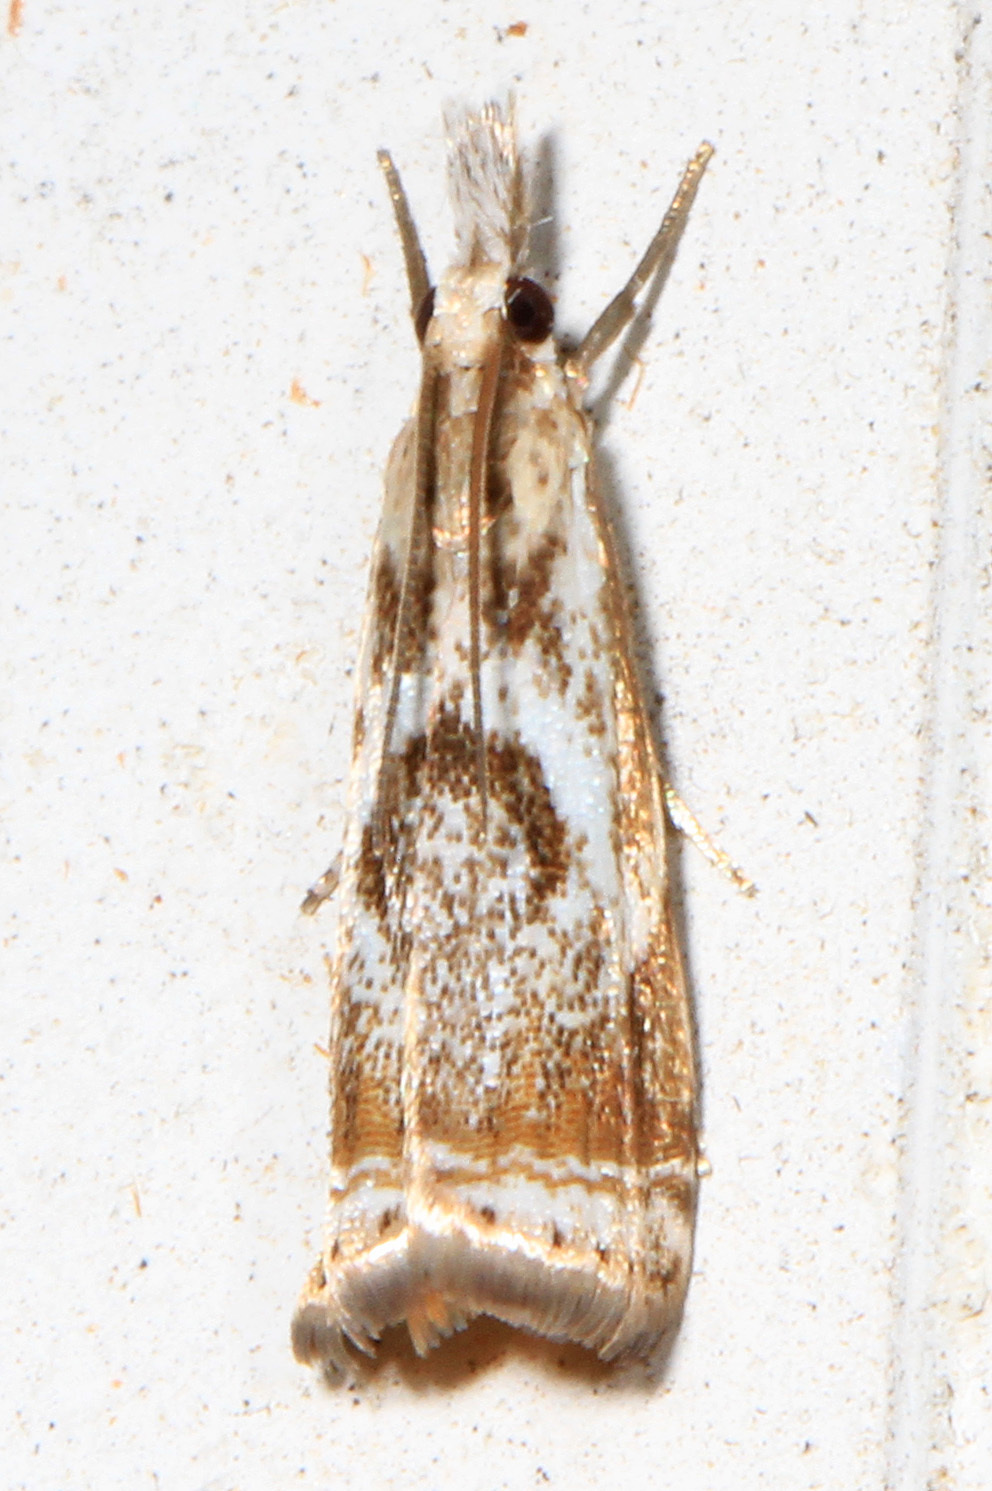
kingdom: Animalia
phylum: Arthropoda
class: Insecta
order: Lepidoptera
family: Crambidae
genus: Microcrambus
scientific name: Microcrambus elegans
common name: Elegant grass-veneer
